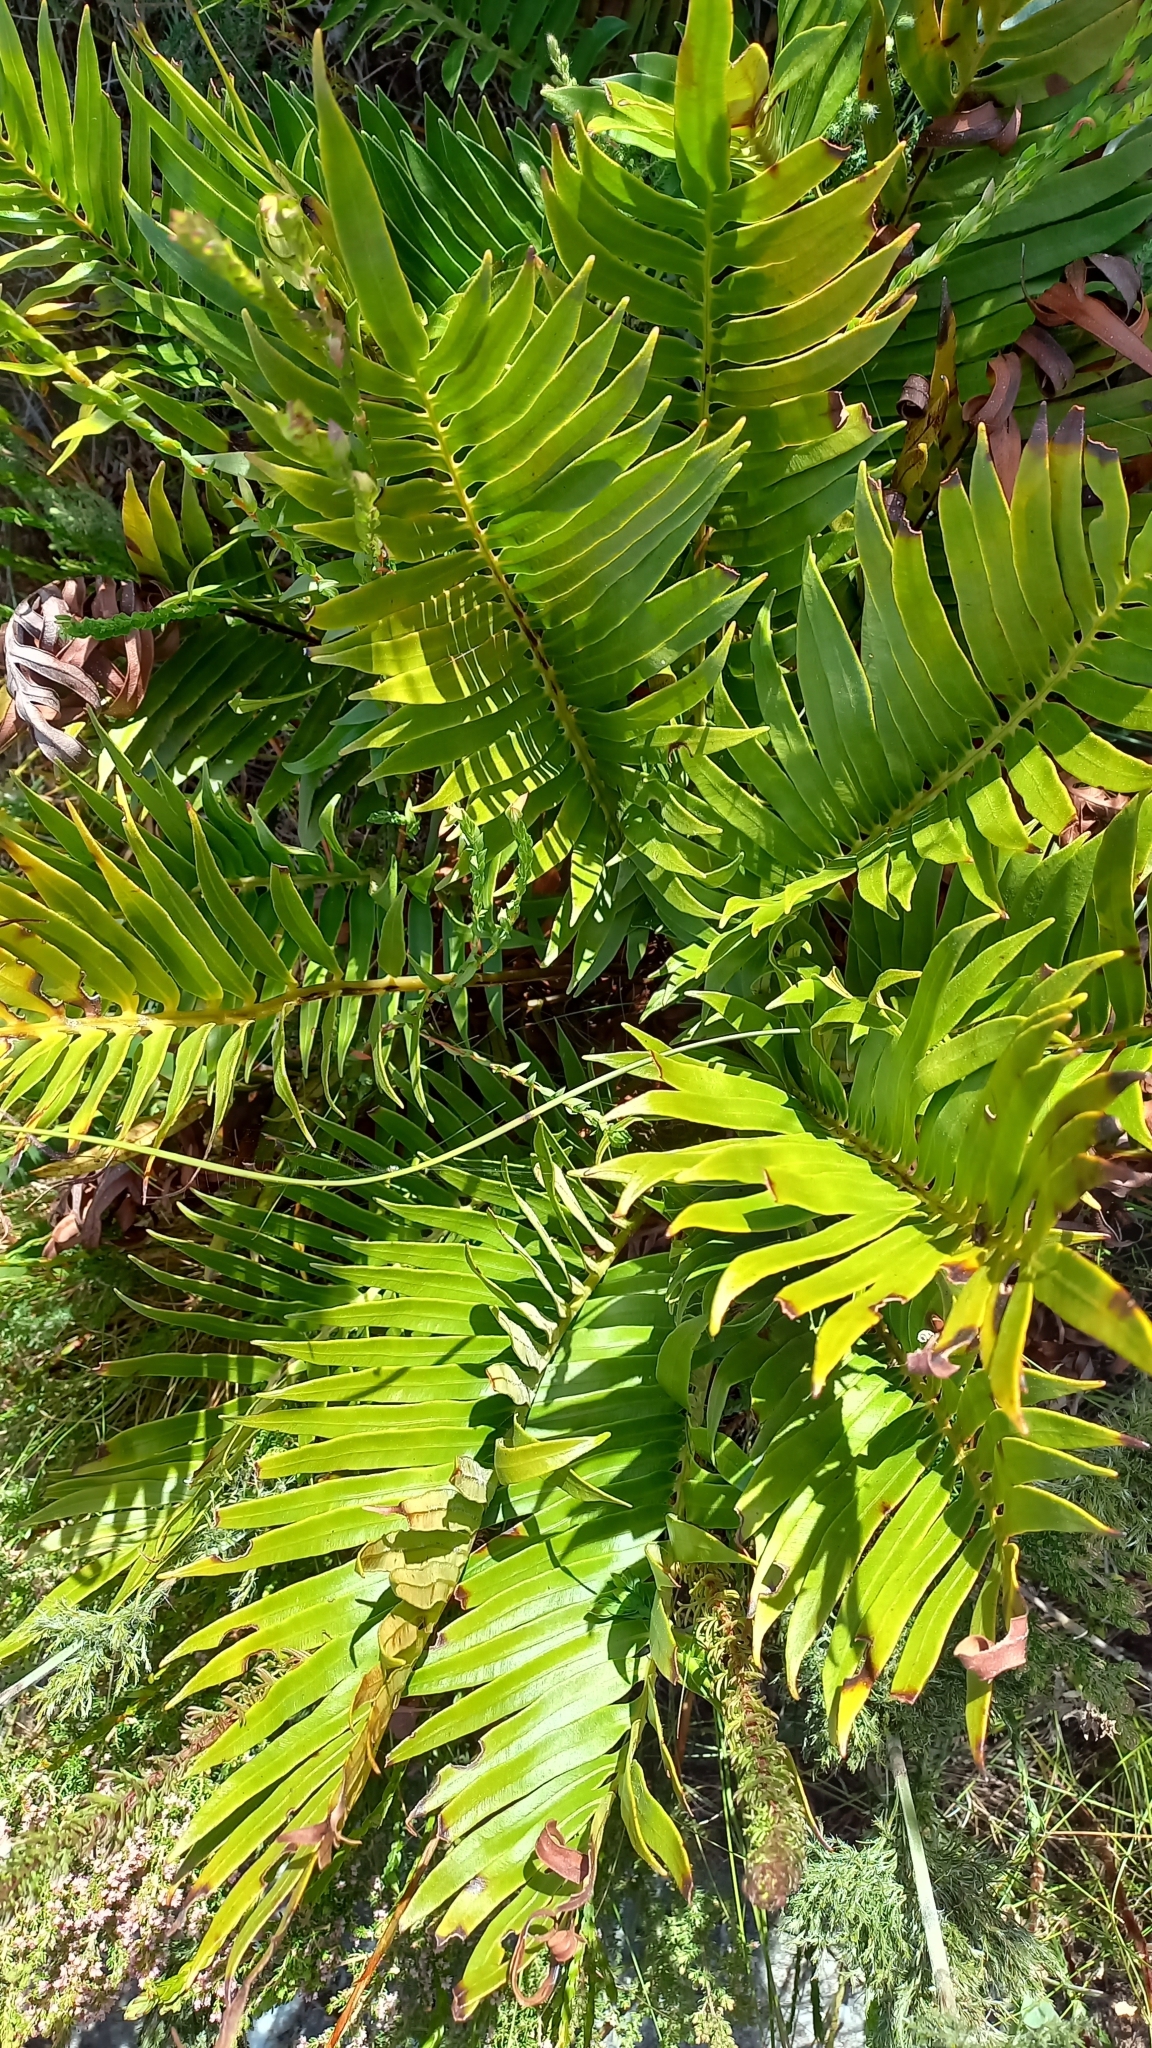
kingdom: Plantae
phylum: Tracheophyta
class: Polypodiopsida
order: Polypodiales
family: Blechnaceae
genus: Lomariocycas
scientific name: Lomariocycas tabularis
